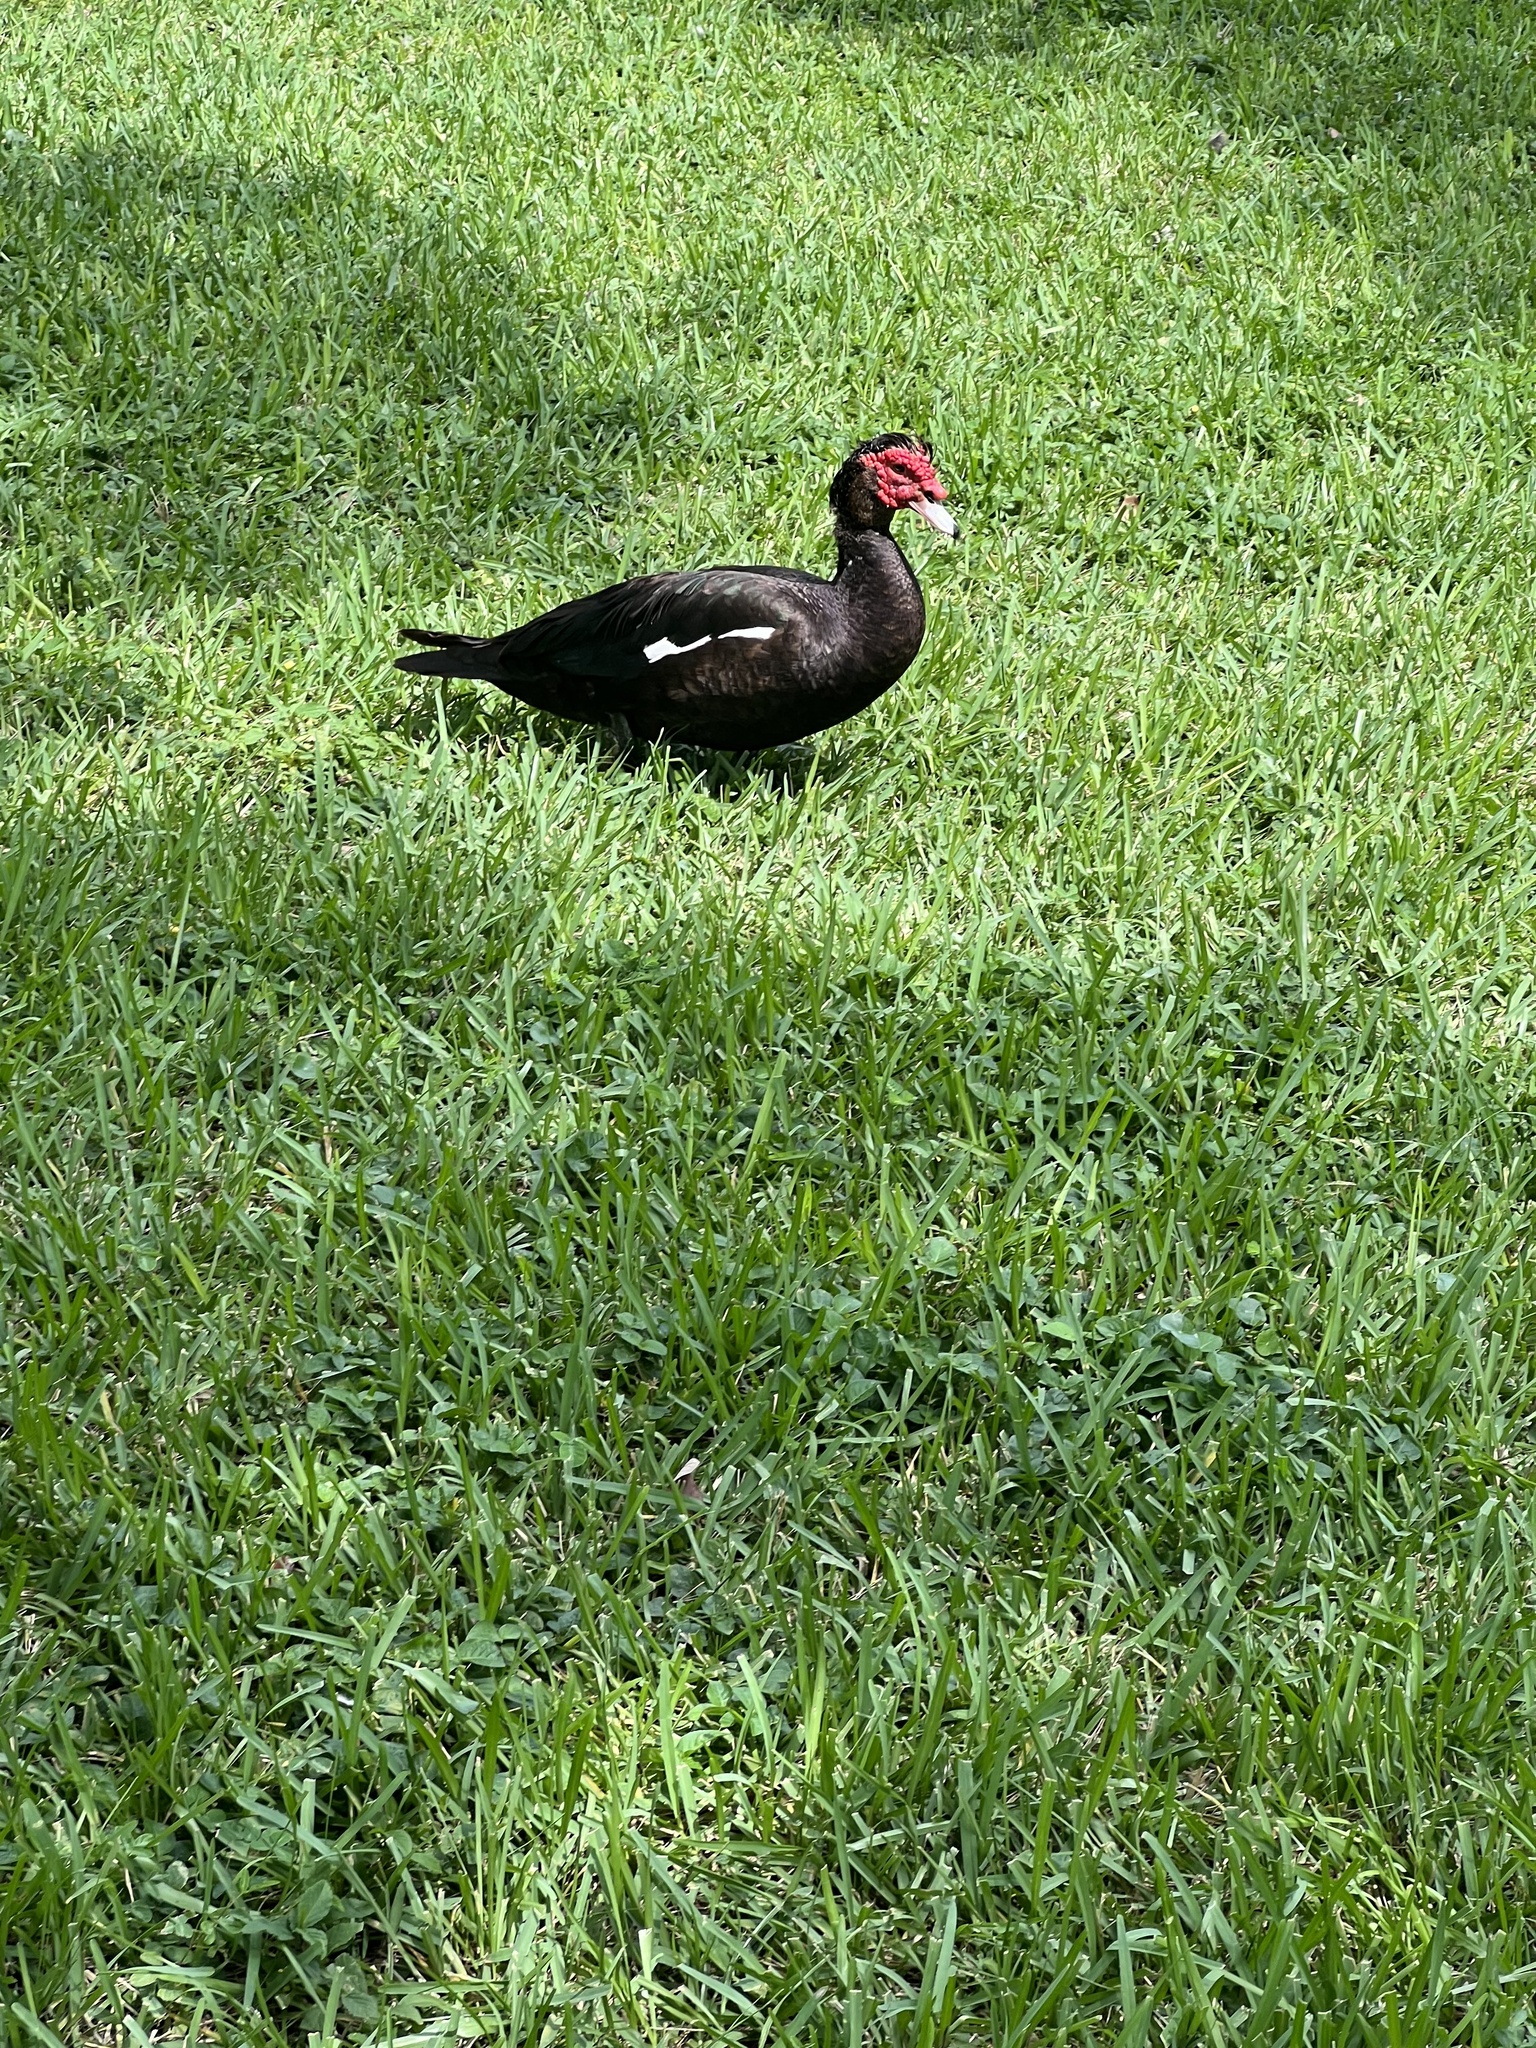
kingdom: Animalia
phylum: Chordata
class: Aves
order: Anseriformes
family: Anatidae
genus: Cairina
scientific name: Cairina moschata
